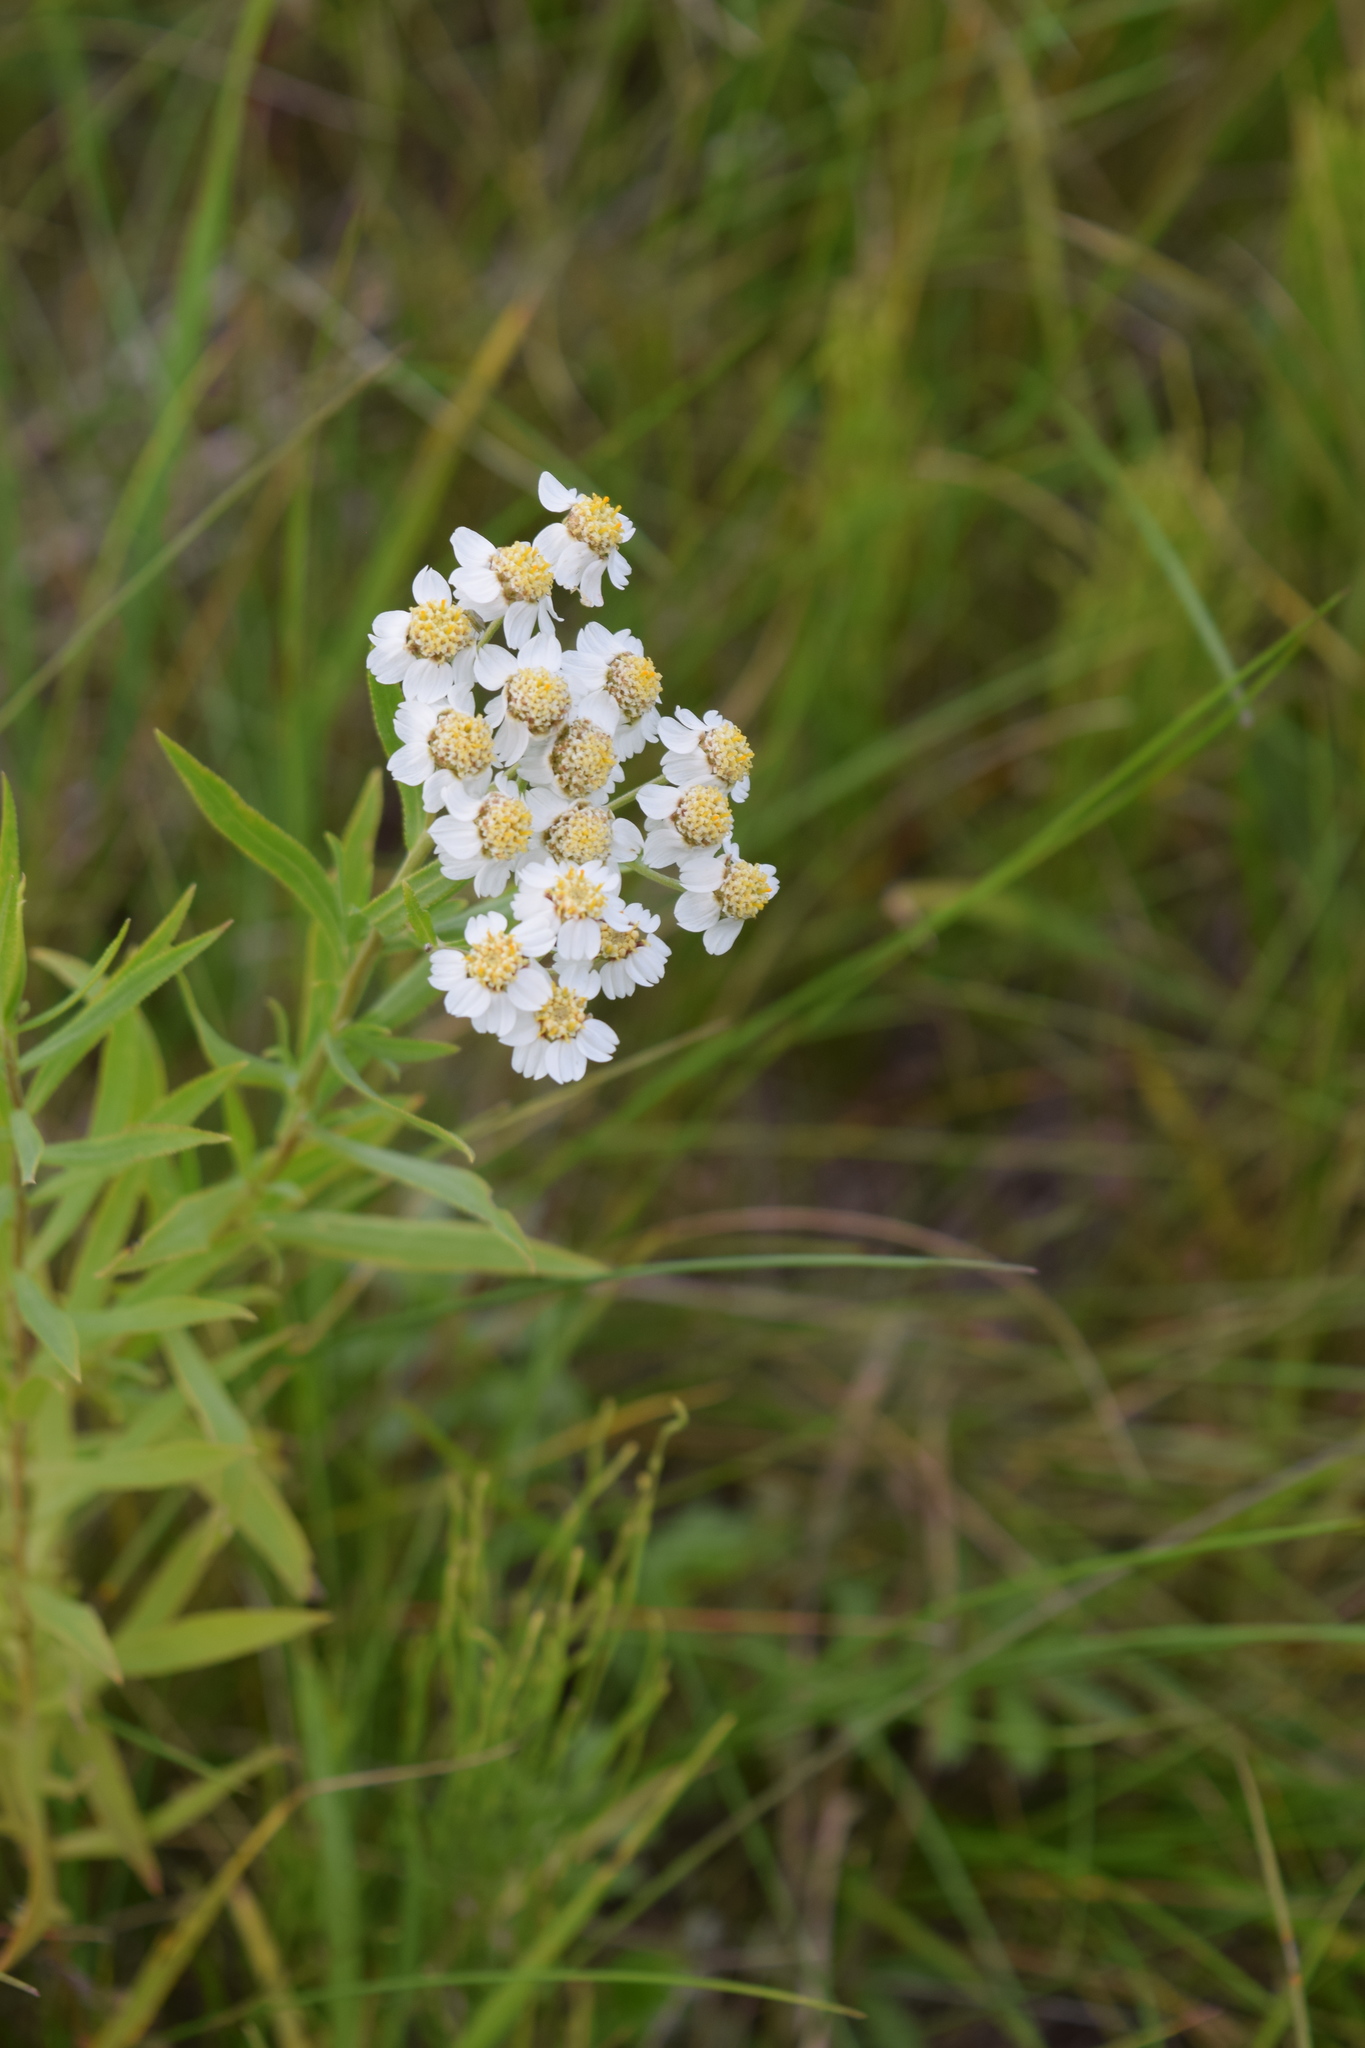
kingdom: Plantae
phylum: Tracheophyta
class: Magnoliopsida
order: Asterales
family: Asteraceae
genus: Achillea
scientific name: Achillea salicifolia
